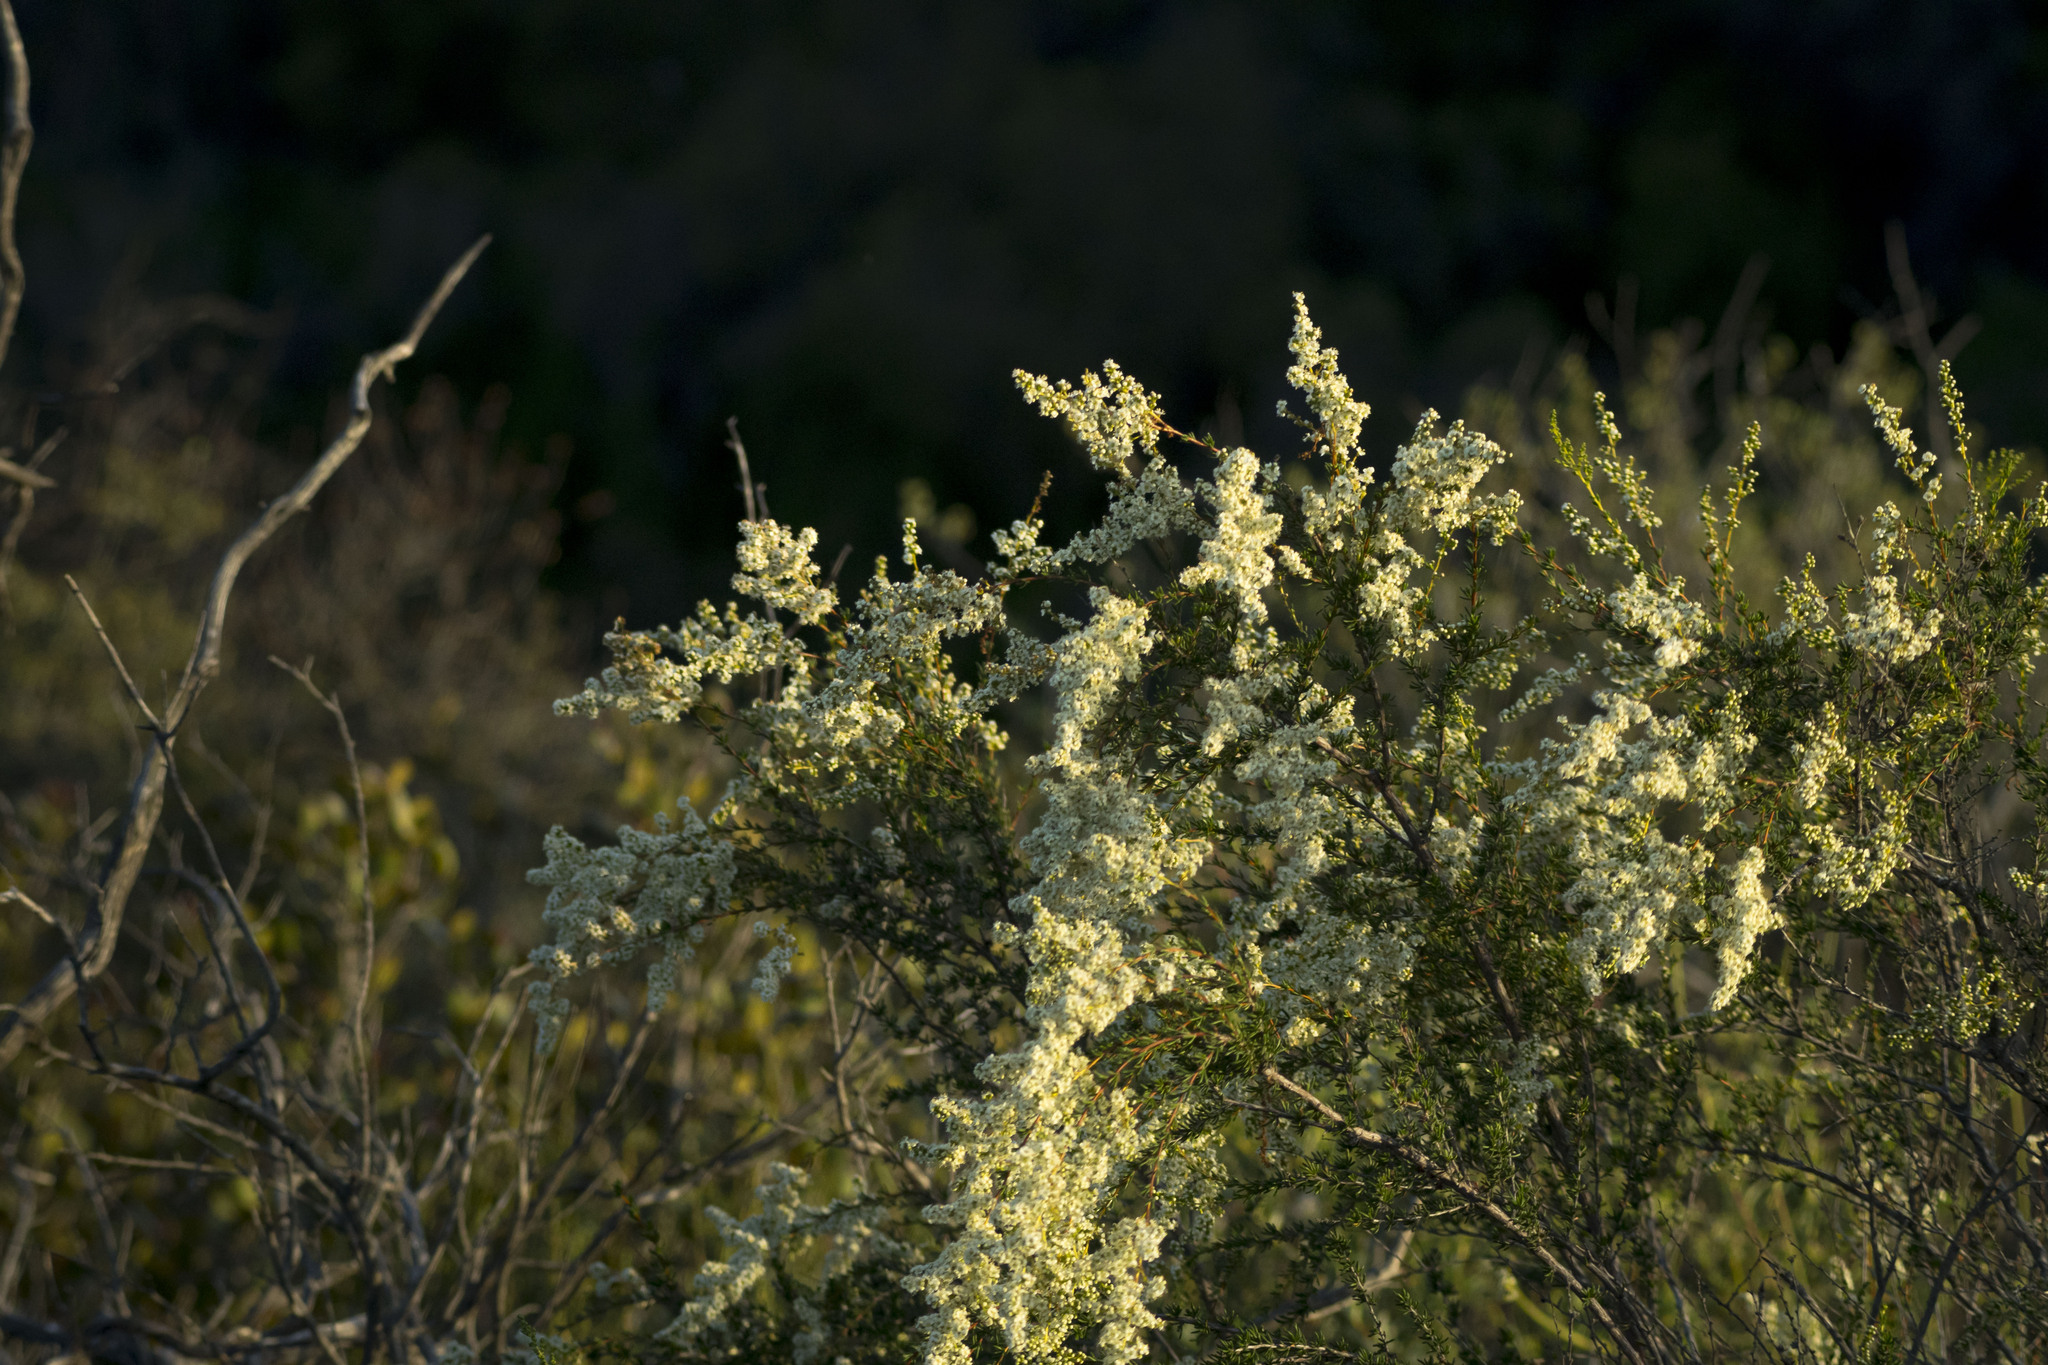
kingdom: Plantae
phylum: Tracheophyta
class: Magnoliopsida
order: Rosales
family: Rosaceae
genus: Adenostoma
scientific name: Adenostoma fasciculatum
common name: Chamise
